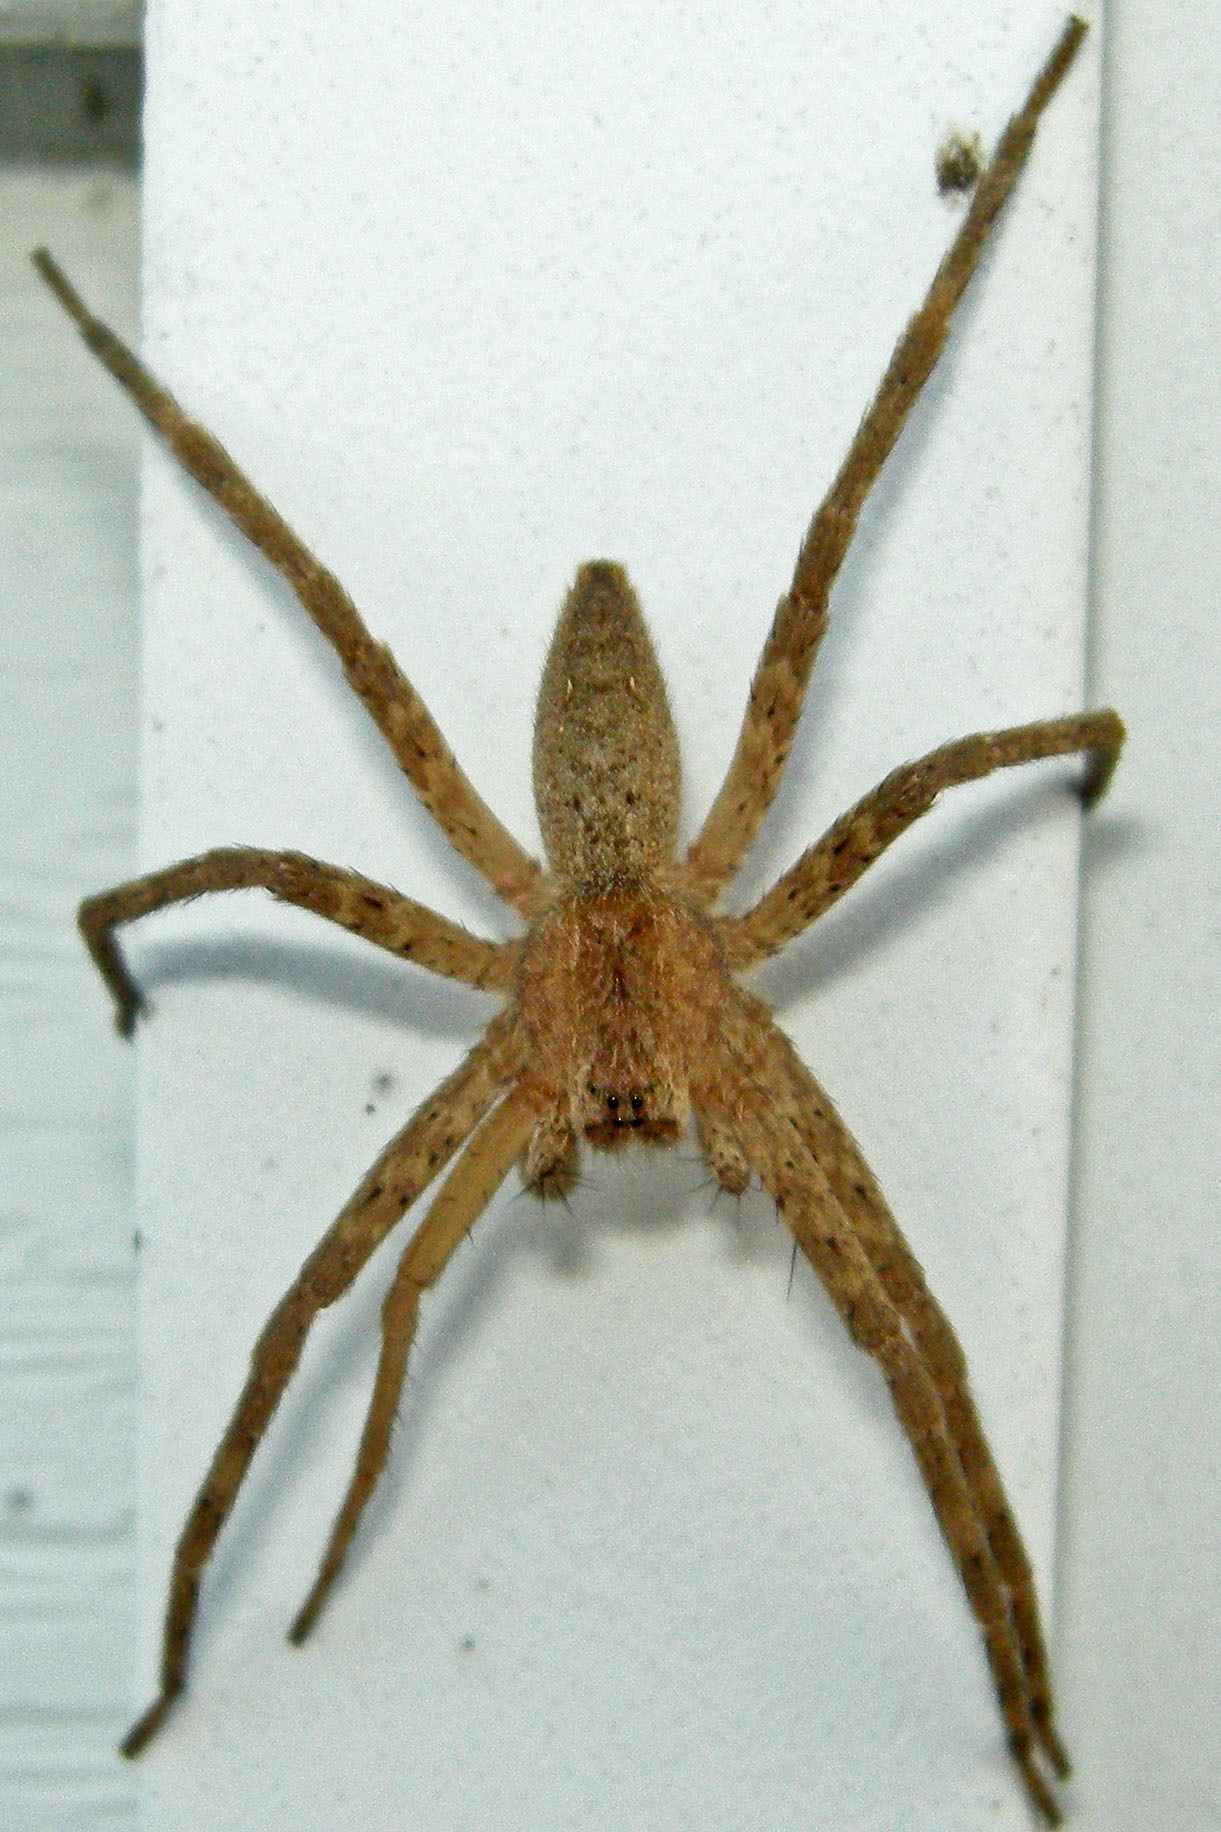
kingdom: Animalia
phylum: Arthropoda
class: Arachnida
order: Araneae
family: Pisauridae
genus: Pisaurina
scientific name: Pisaurina mira
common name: American nursery web spider
